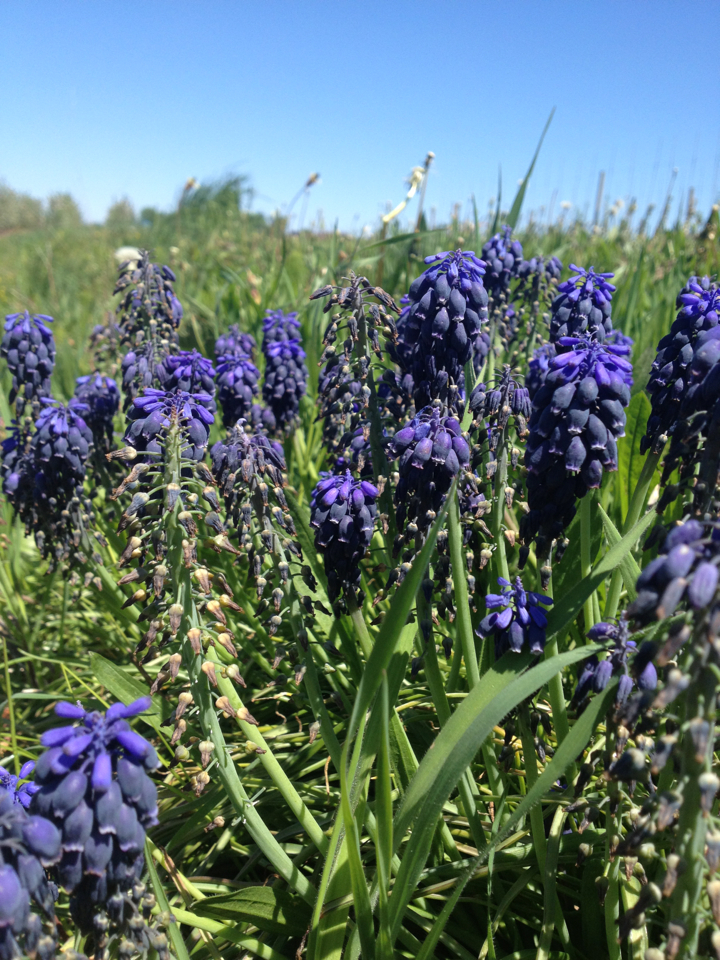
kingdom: Plantae
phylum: Tracheophyta
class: Liliopsida
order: Asparagales
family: Asparagaceae
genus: Muscari
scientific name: Muscari neglectum
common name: Grape-hyacinth
